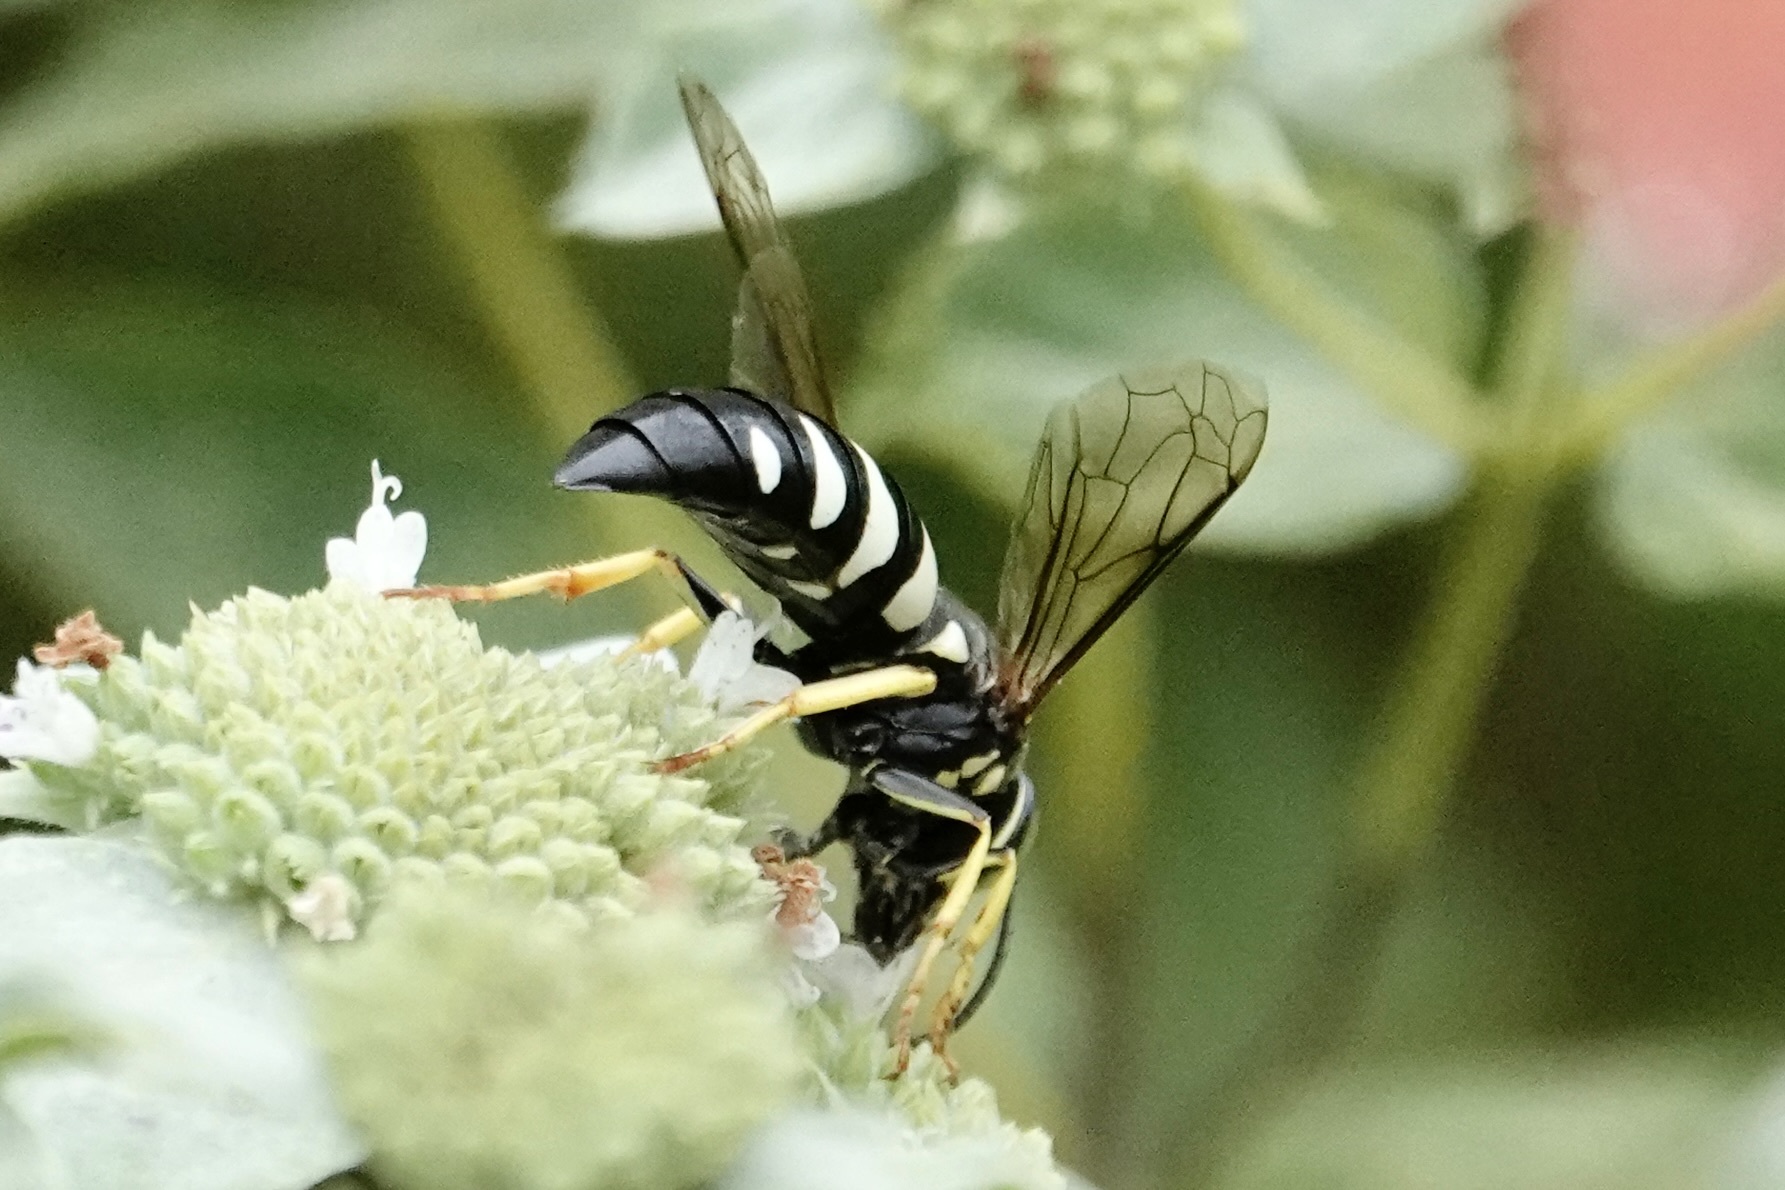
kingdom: Animalia
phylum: Arthropoda
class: Insecta
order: Hymenoptera
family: Crabronidae
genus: Bicyrtes
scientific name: Bicyrtes quadrifasciatus
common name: Four-banded stink bug hunter wasp
